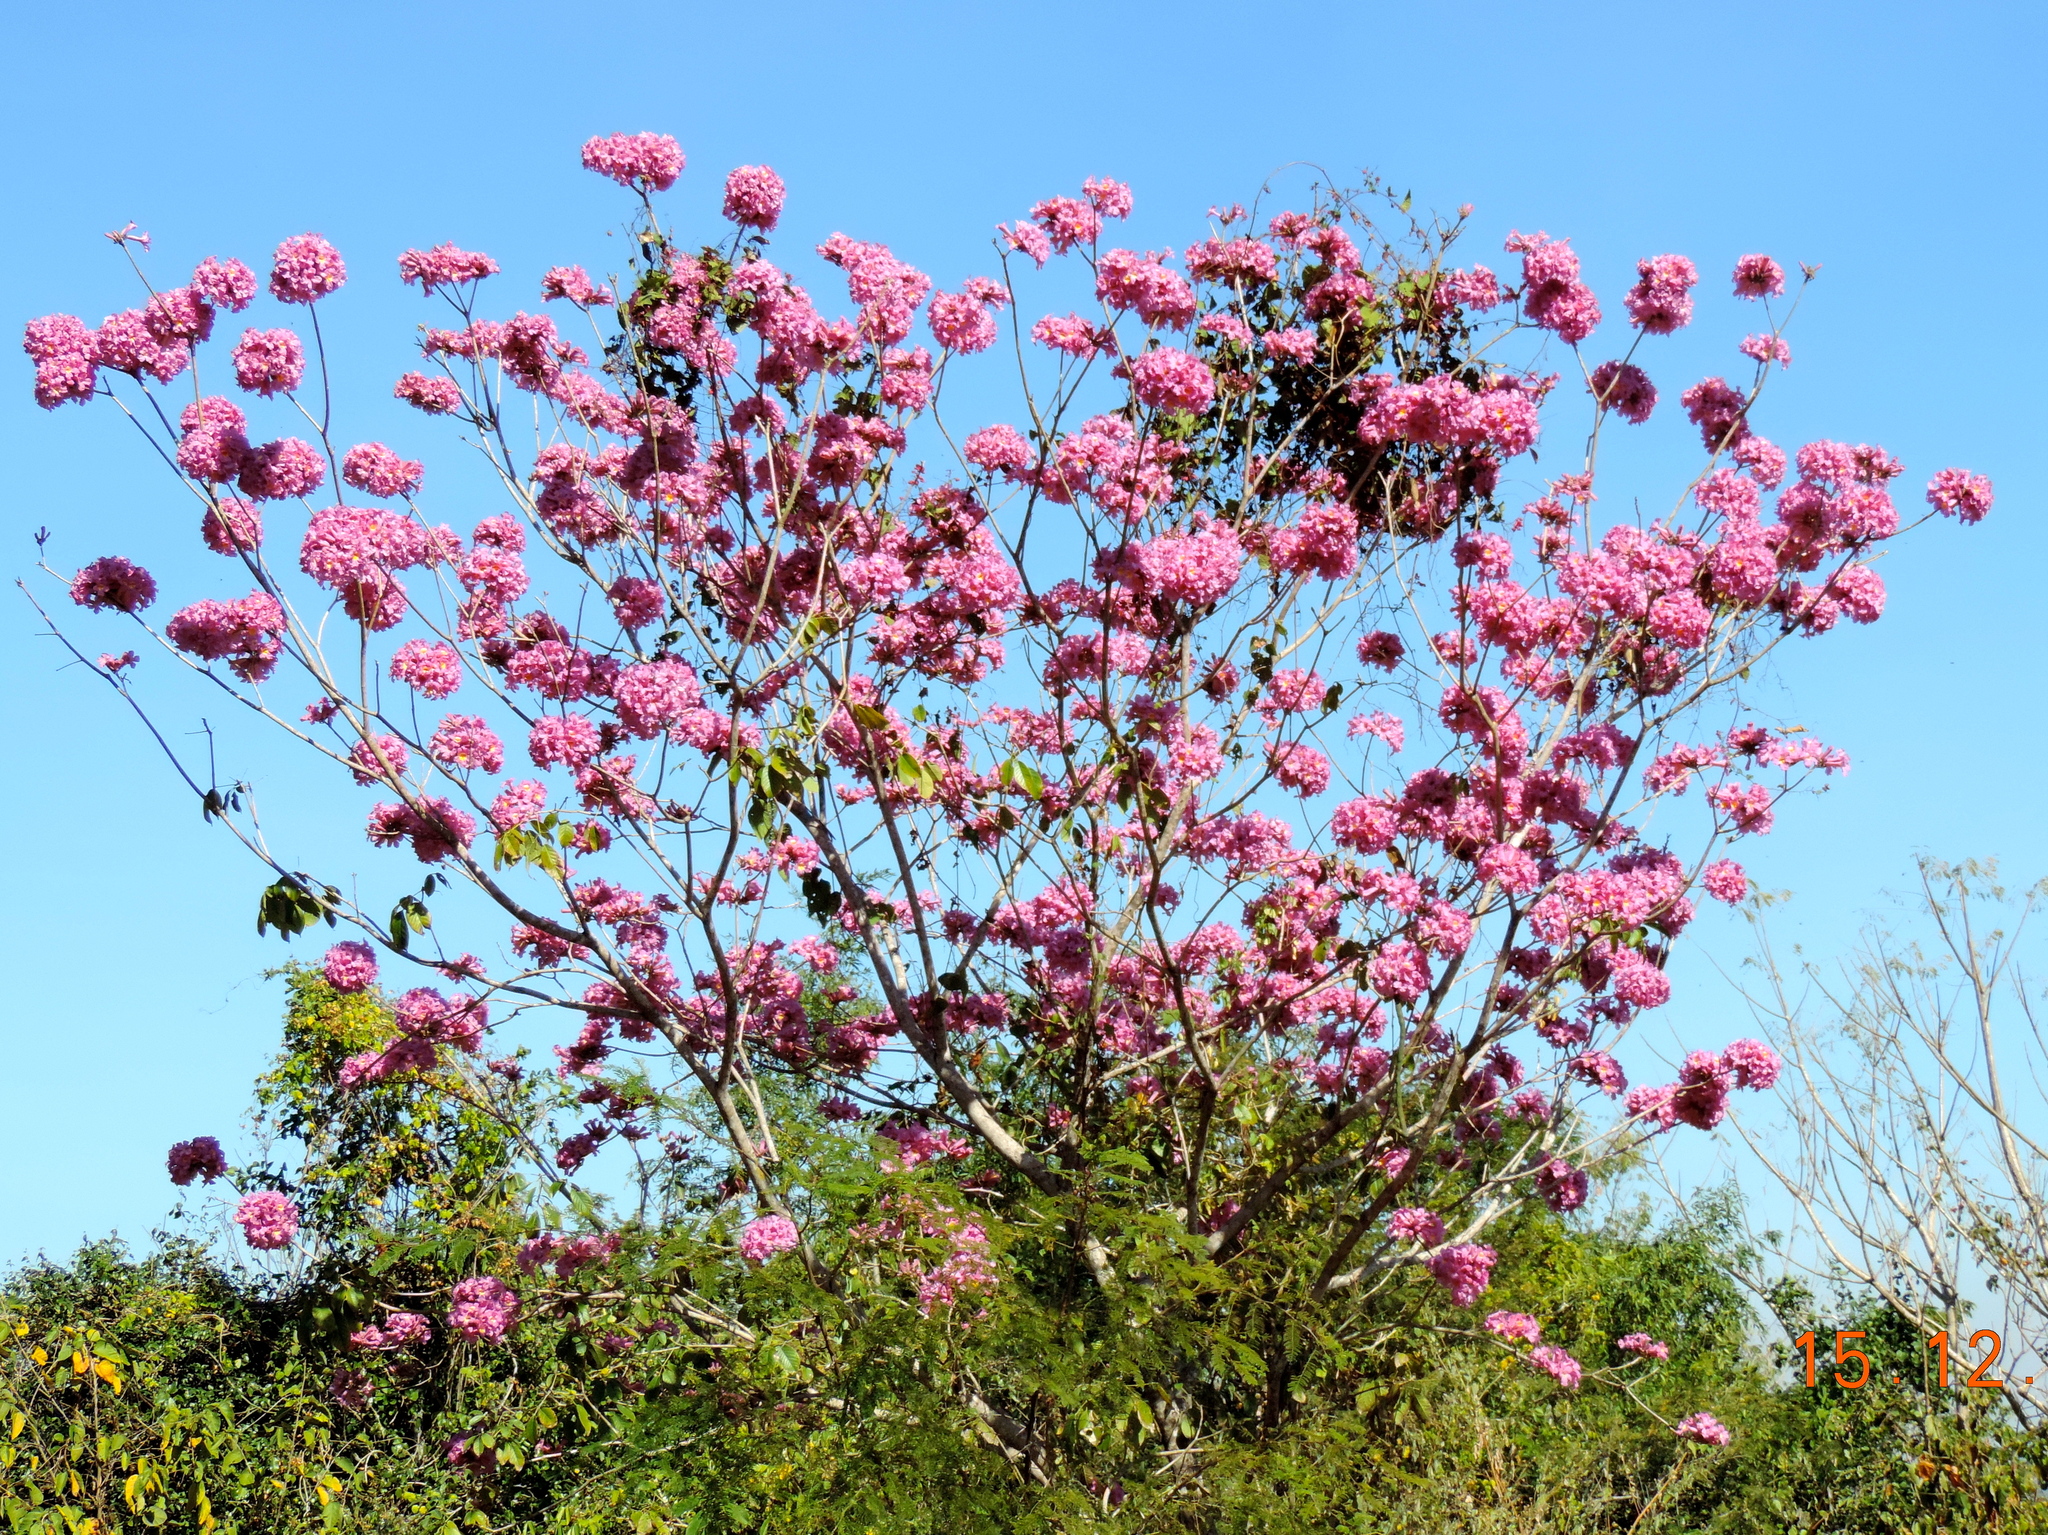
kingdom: Plantae
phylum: Tracheophyta
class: Magnoliopsida
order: Lamiales
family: Bignoniaceae
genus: Handroanthus
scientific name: Handroanthus impetiginosum
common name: Pink trumpet tree
